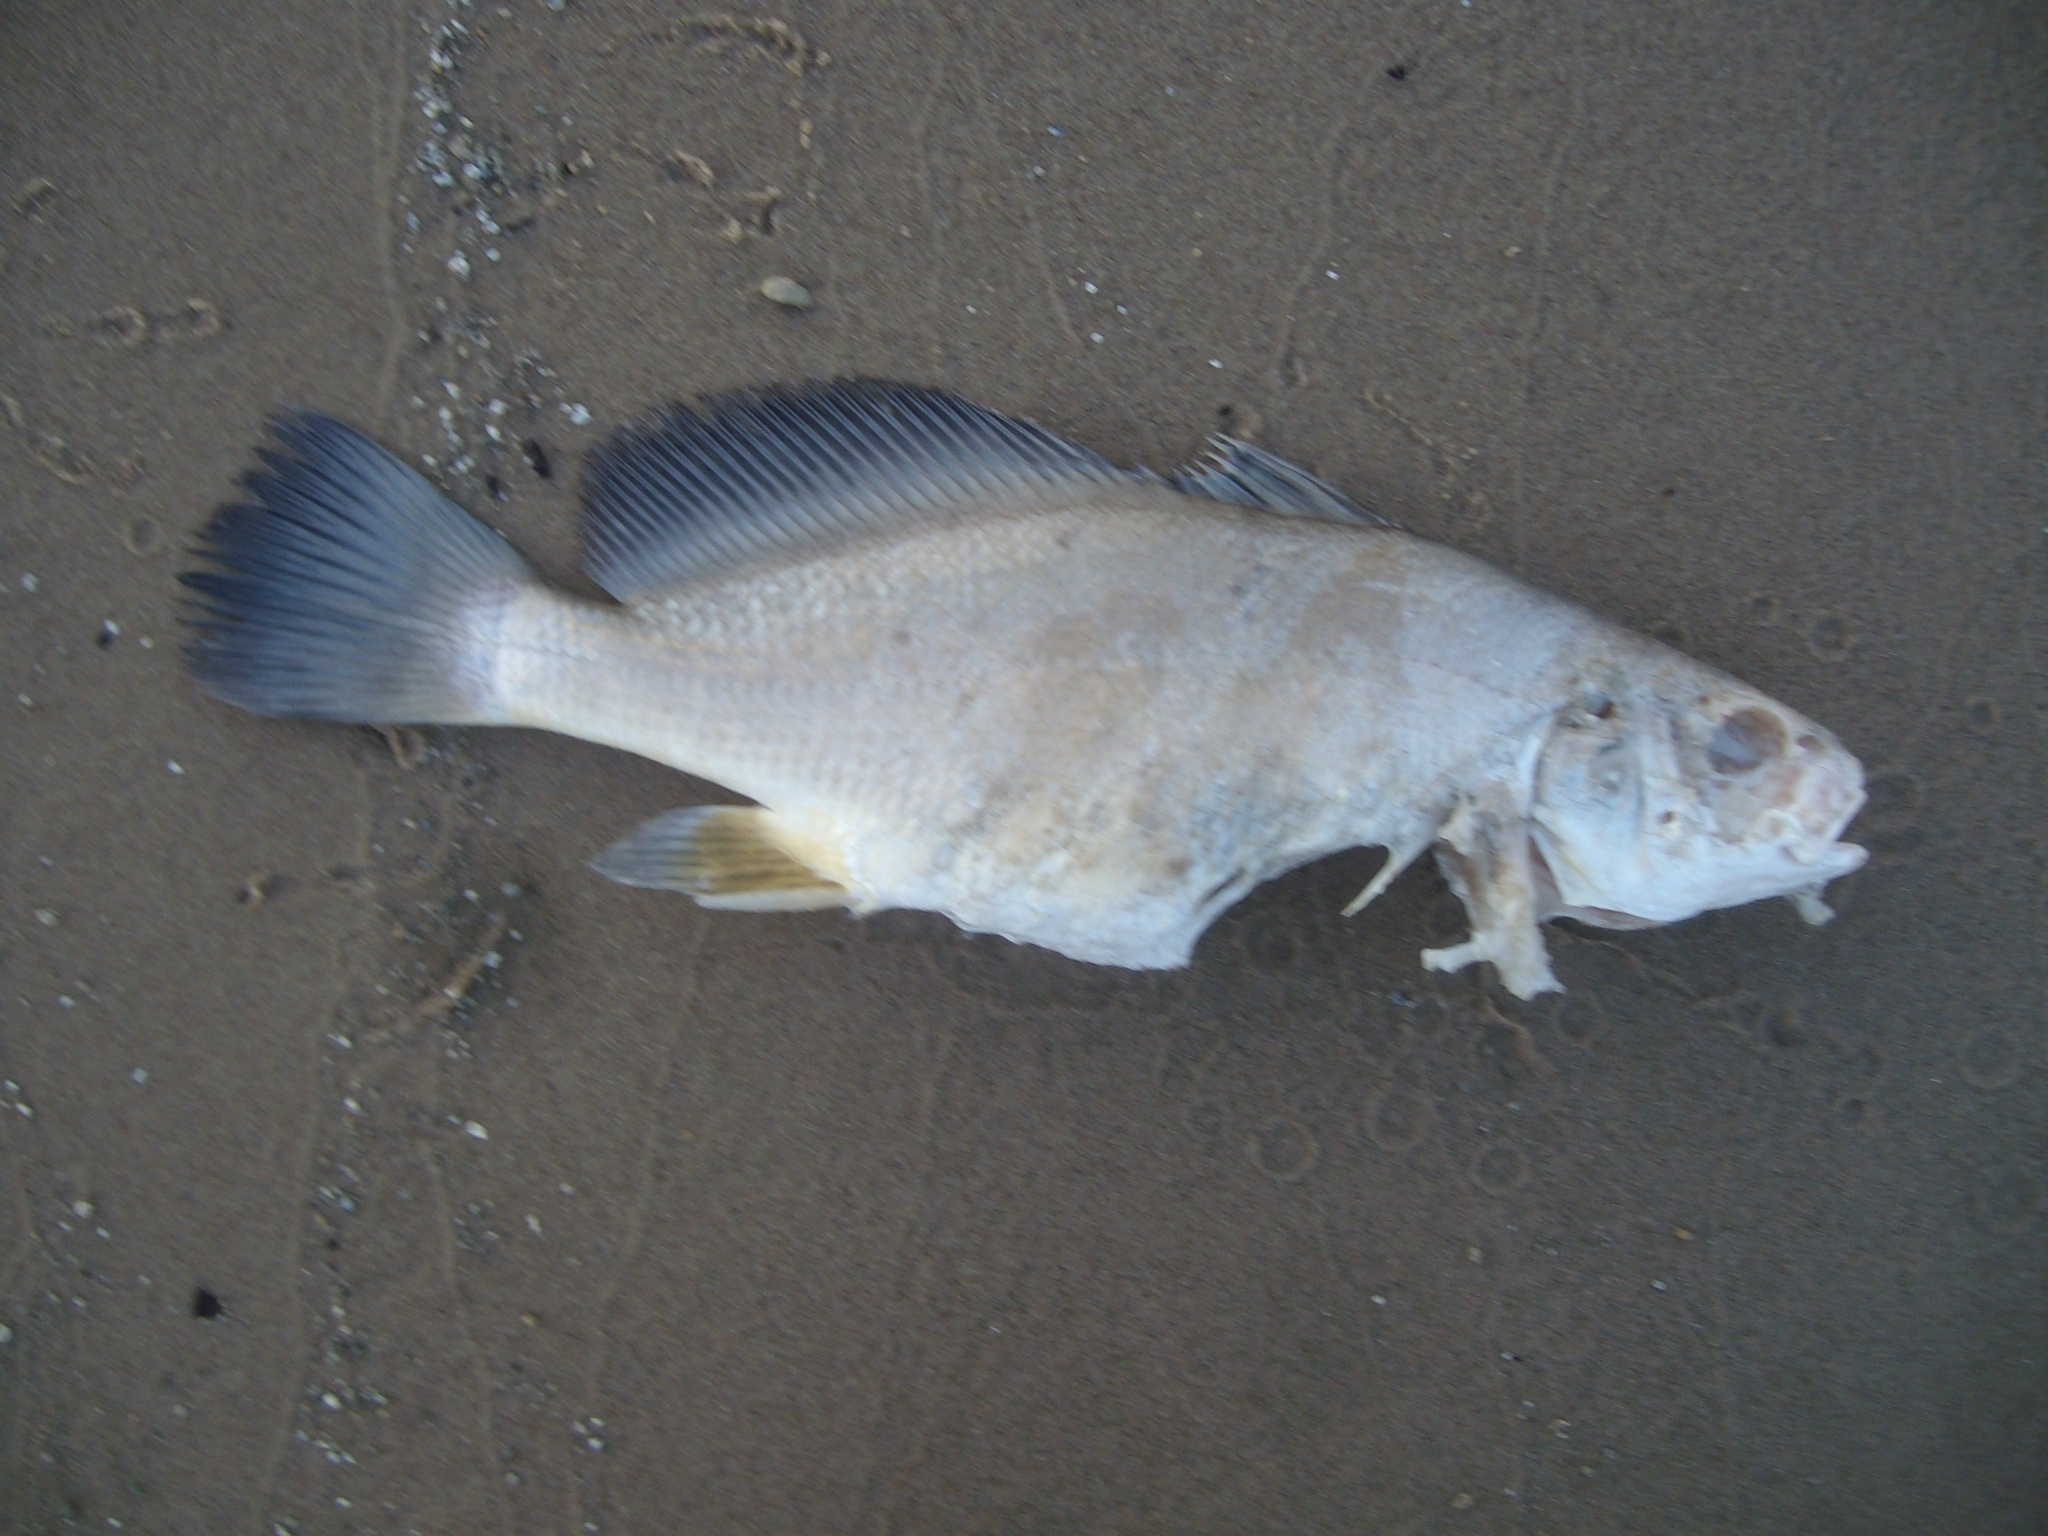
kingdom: Animalia
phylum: Chordata
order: Perciformes
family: Sciaenidae
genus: Aplodinotus
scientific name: Aplodinotus grunniens
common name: Freshwater drum
